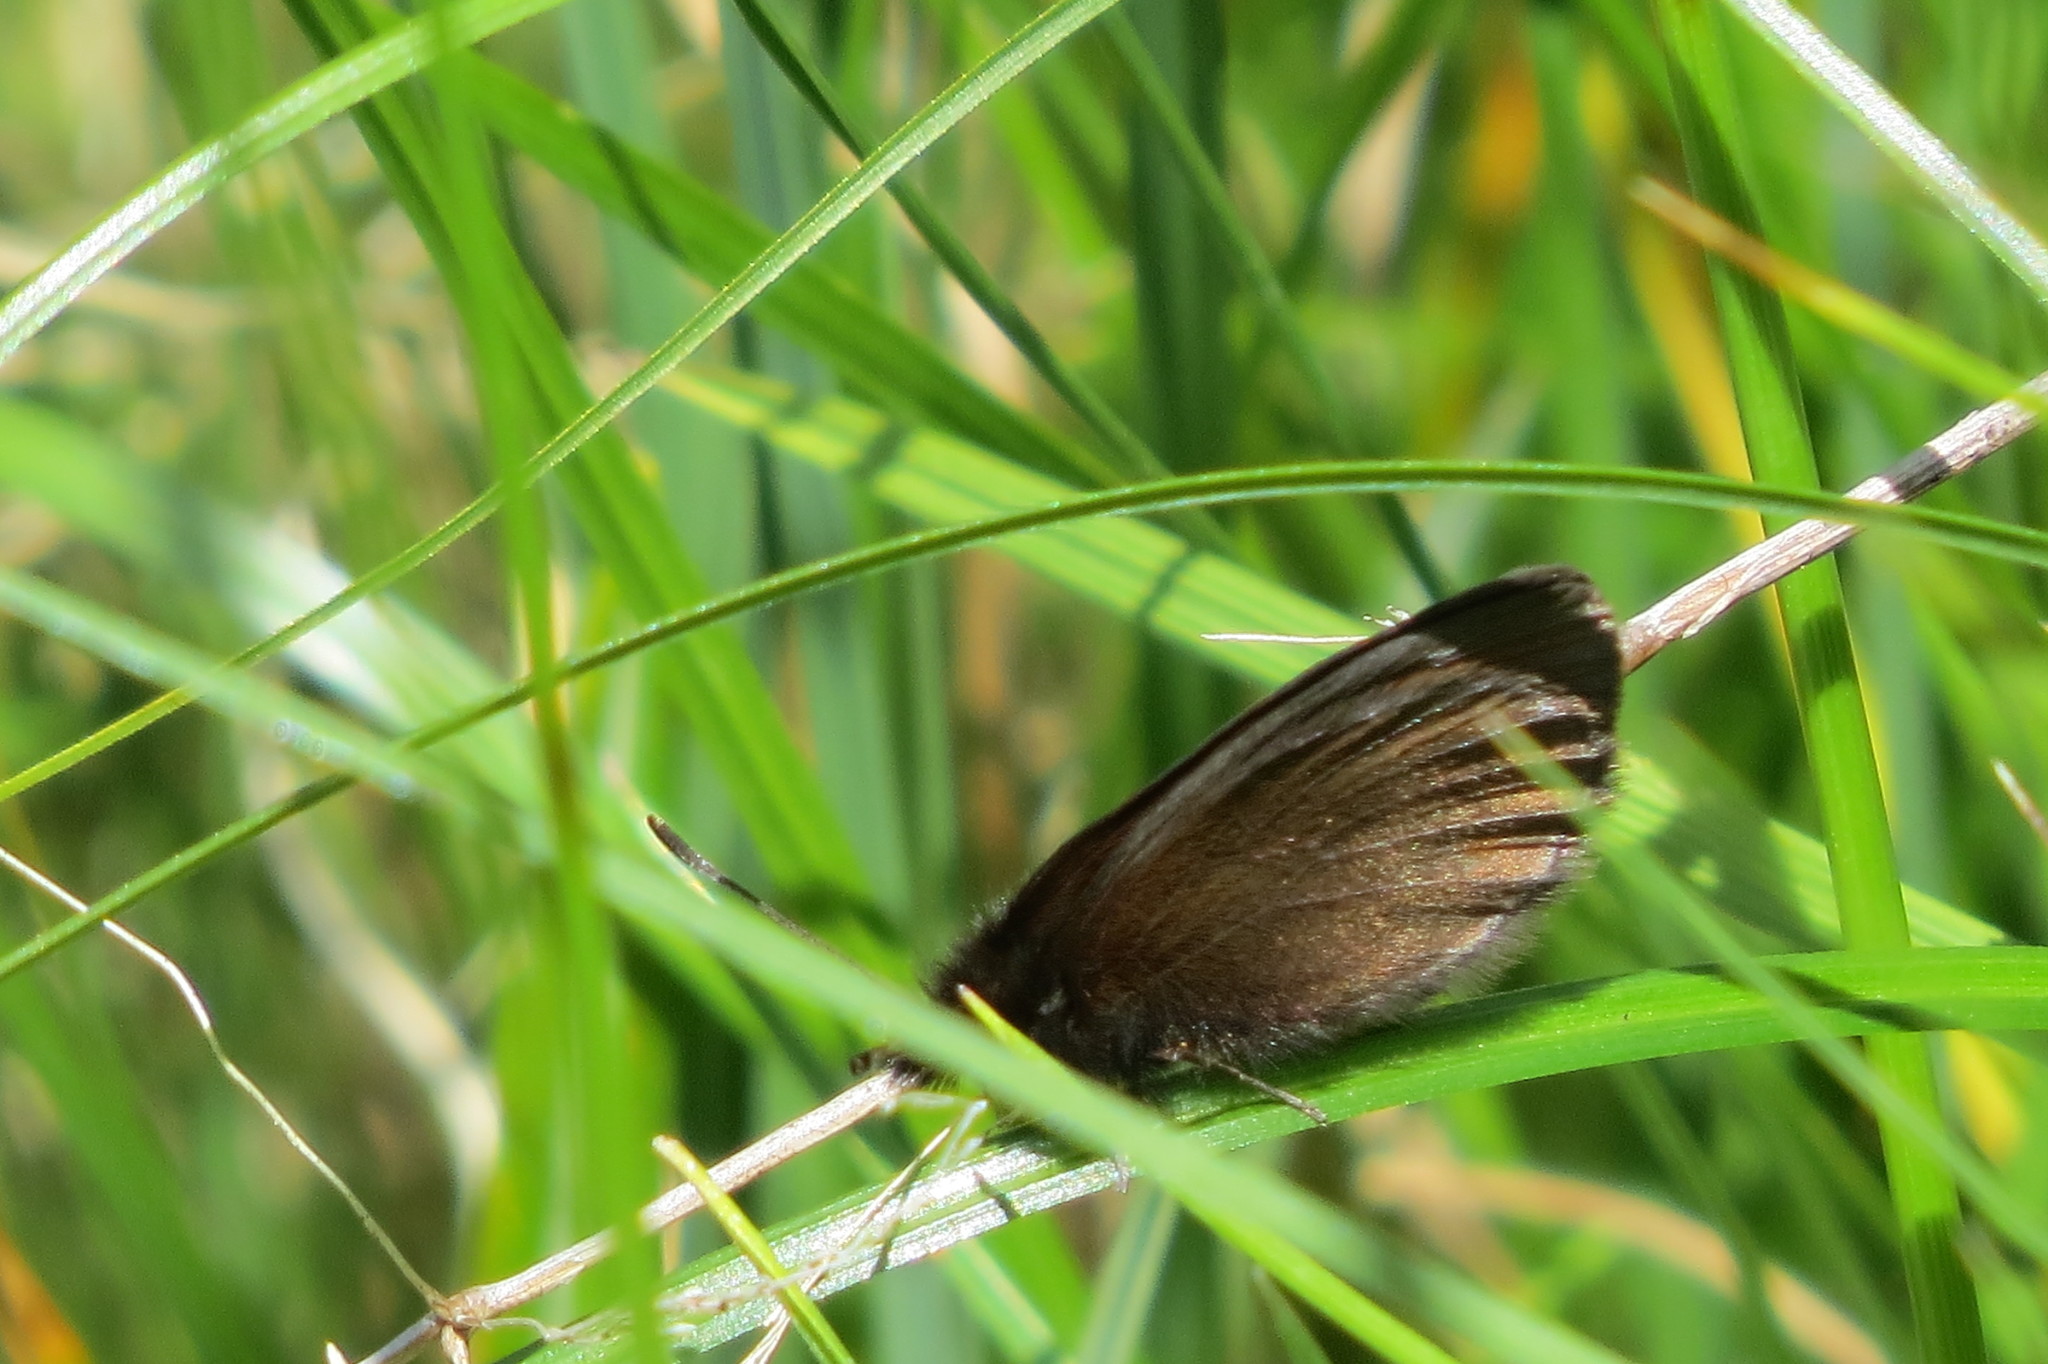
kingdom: Animalia
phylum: Arthropoda
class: Insecta
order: Lepidoptera
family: Nymphalidae
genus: Erebia
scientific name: Erebia epiphron
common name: Mountain ringlet
